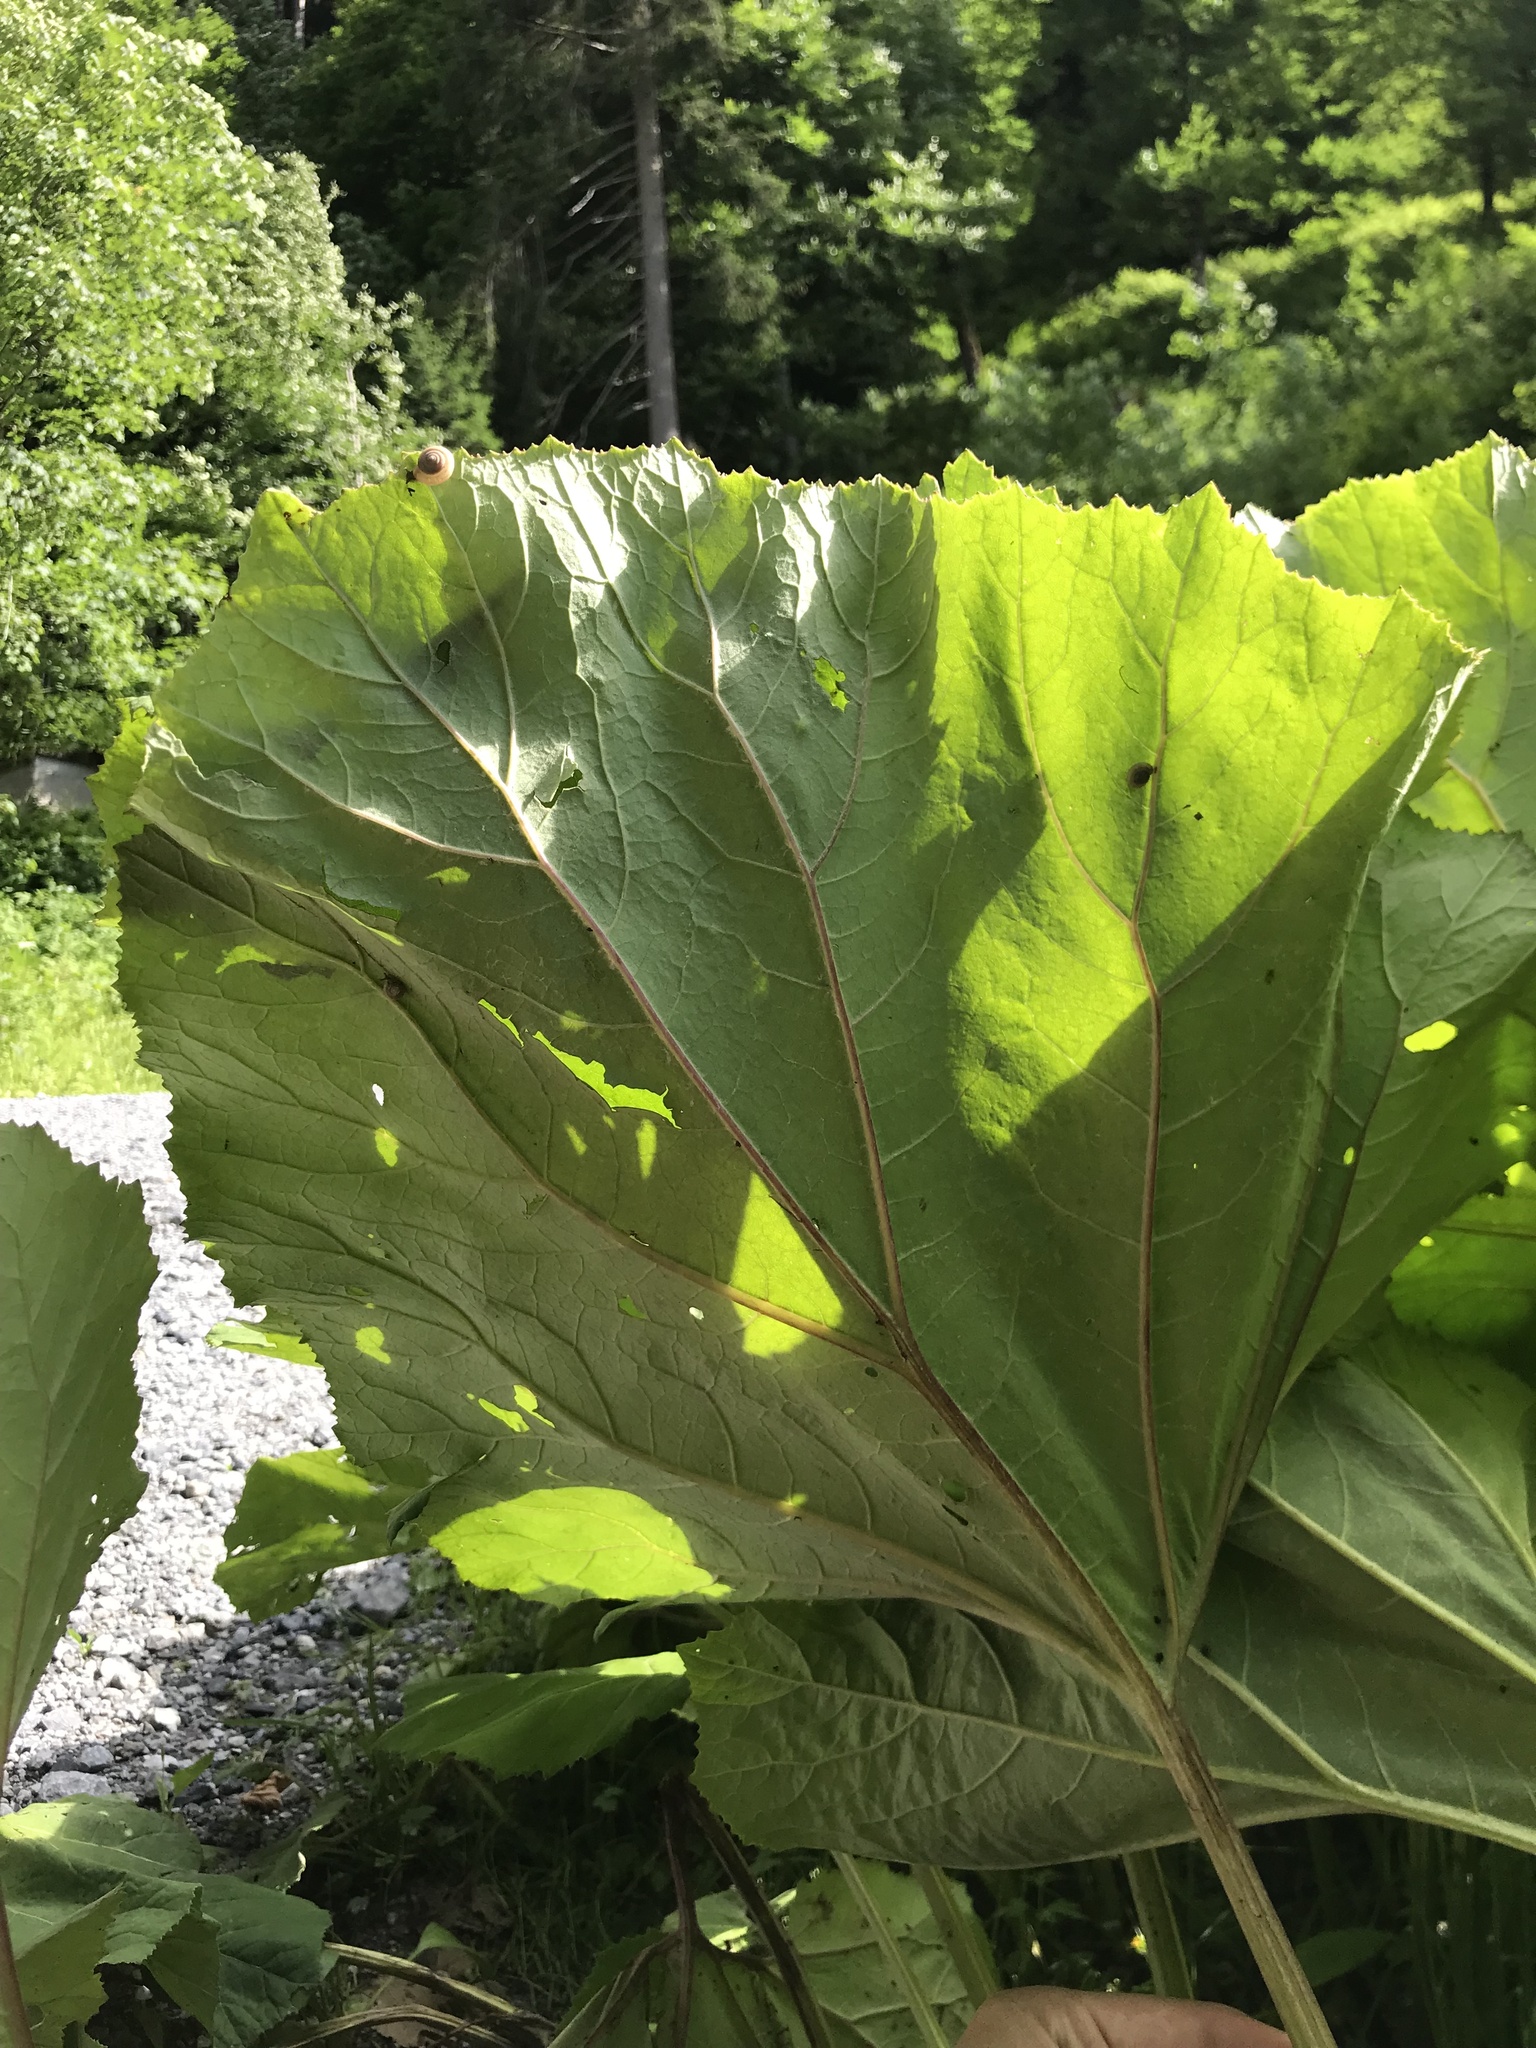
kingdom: Plantae
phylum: Tracheophyta
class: Magnoliopsida
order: Asterales
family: Asteraceae
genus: Petasites
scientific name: Petasites hybridus
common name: Butterbur
